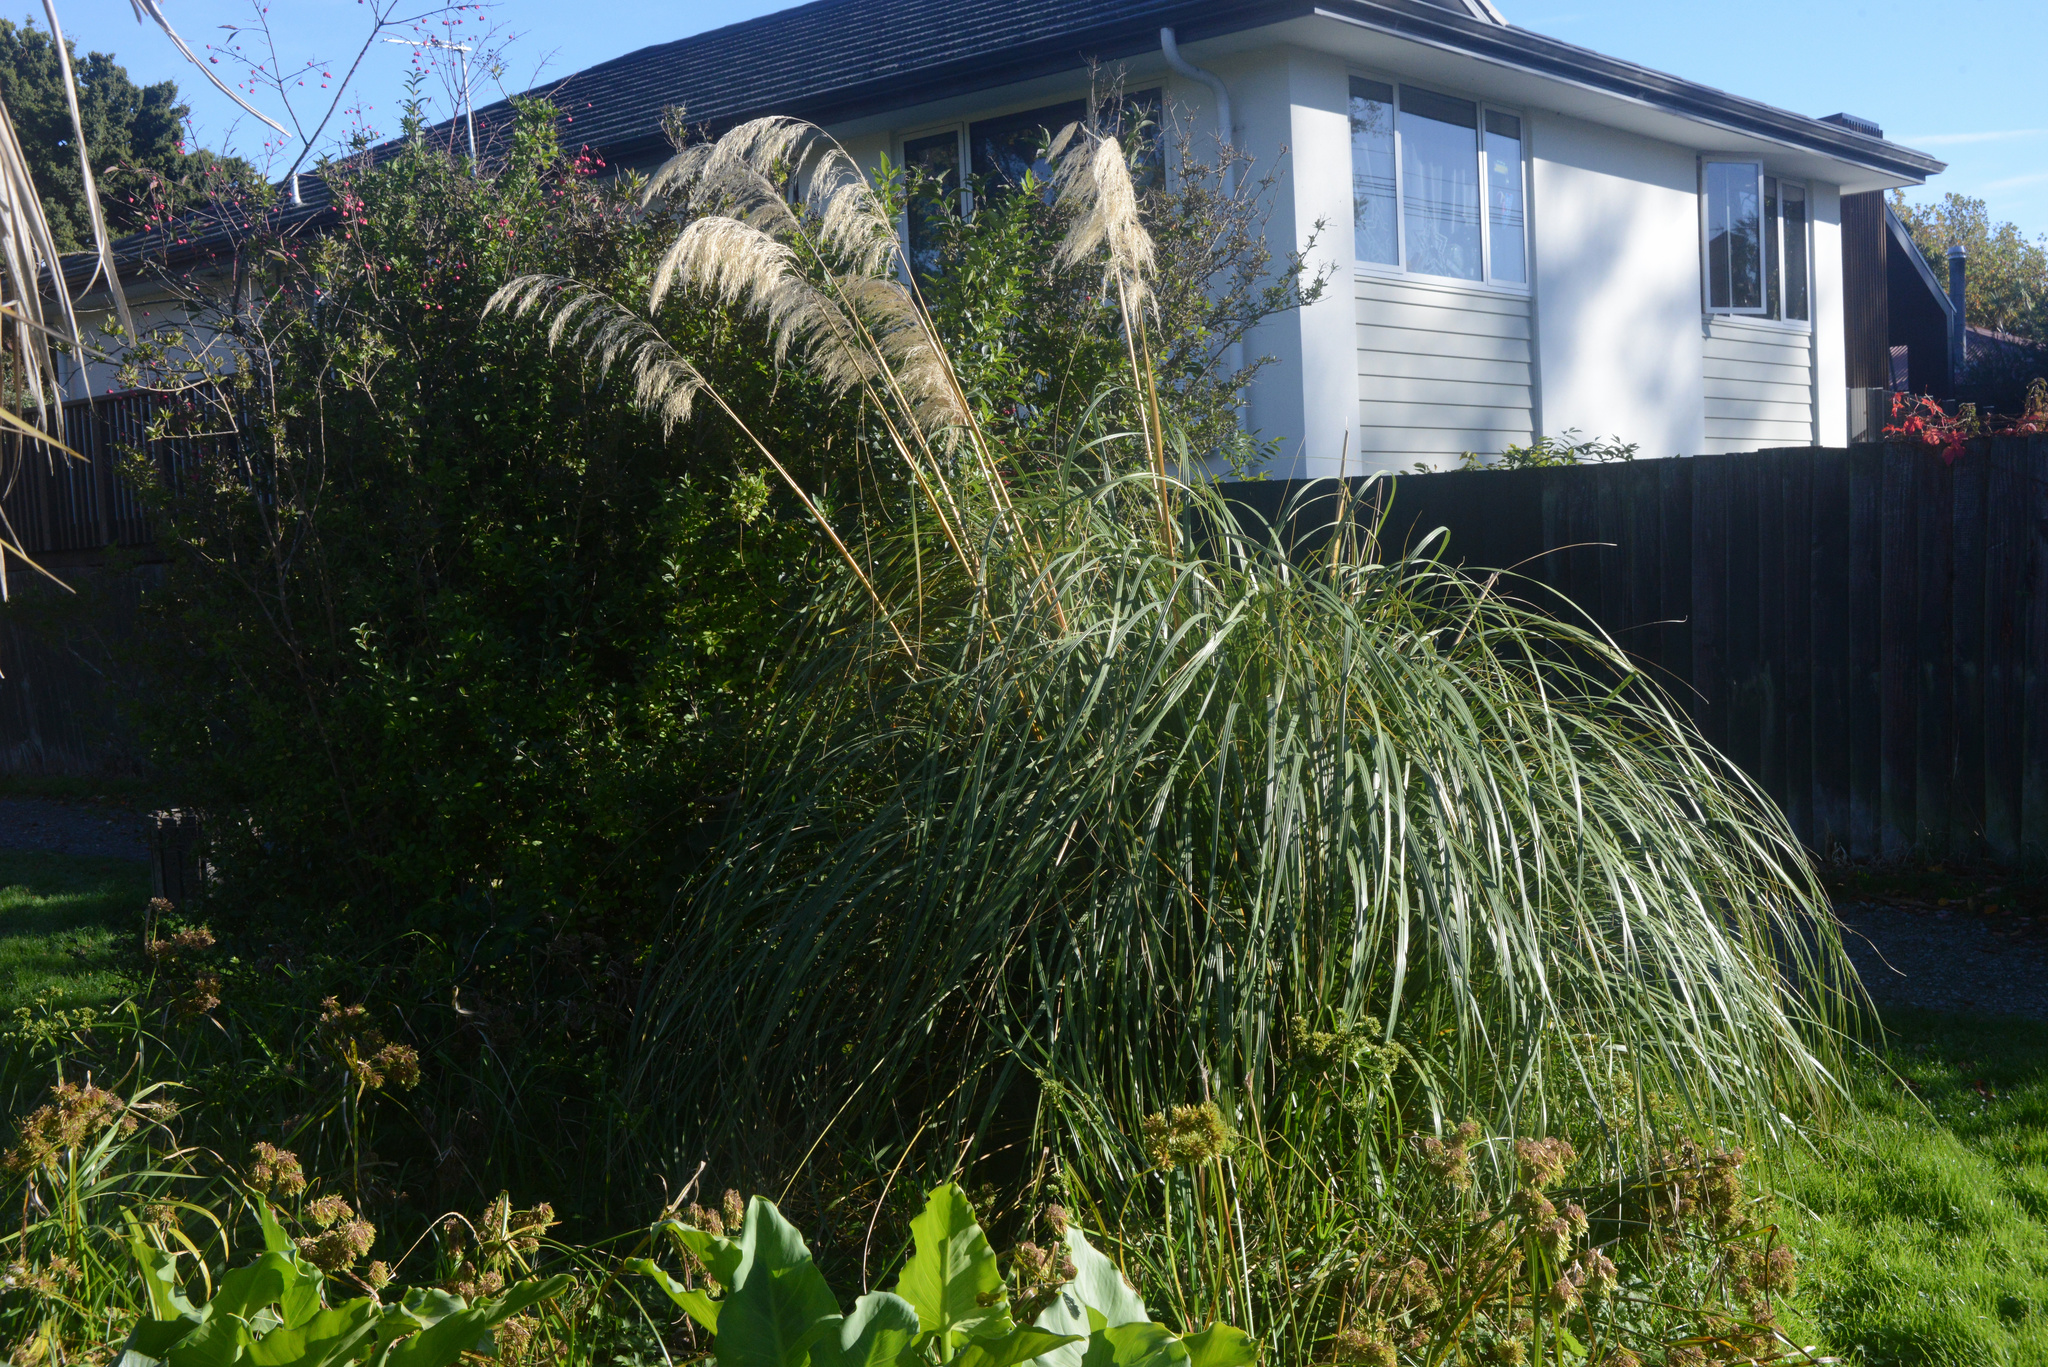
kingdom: Plantae
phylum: Tracheophyta
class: Liliopsida
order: Poales
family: Poaceae
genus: Austroderia
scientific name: Austroderia richardii
